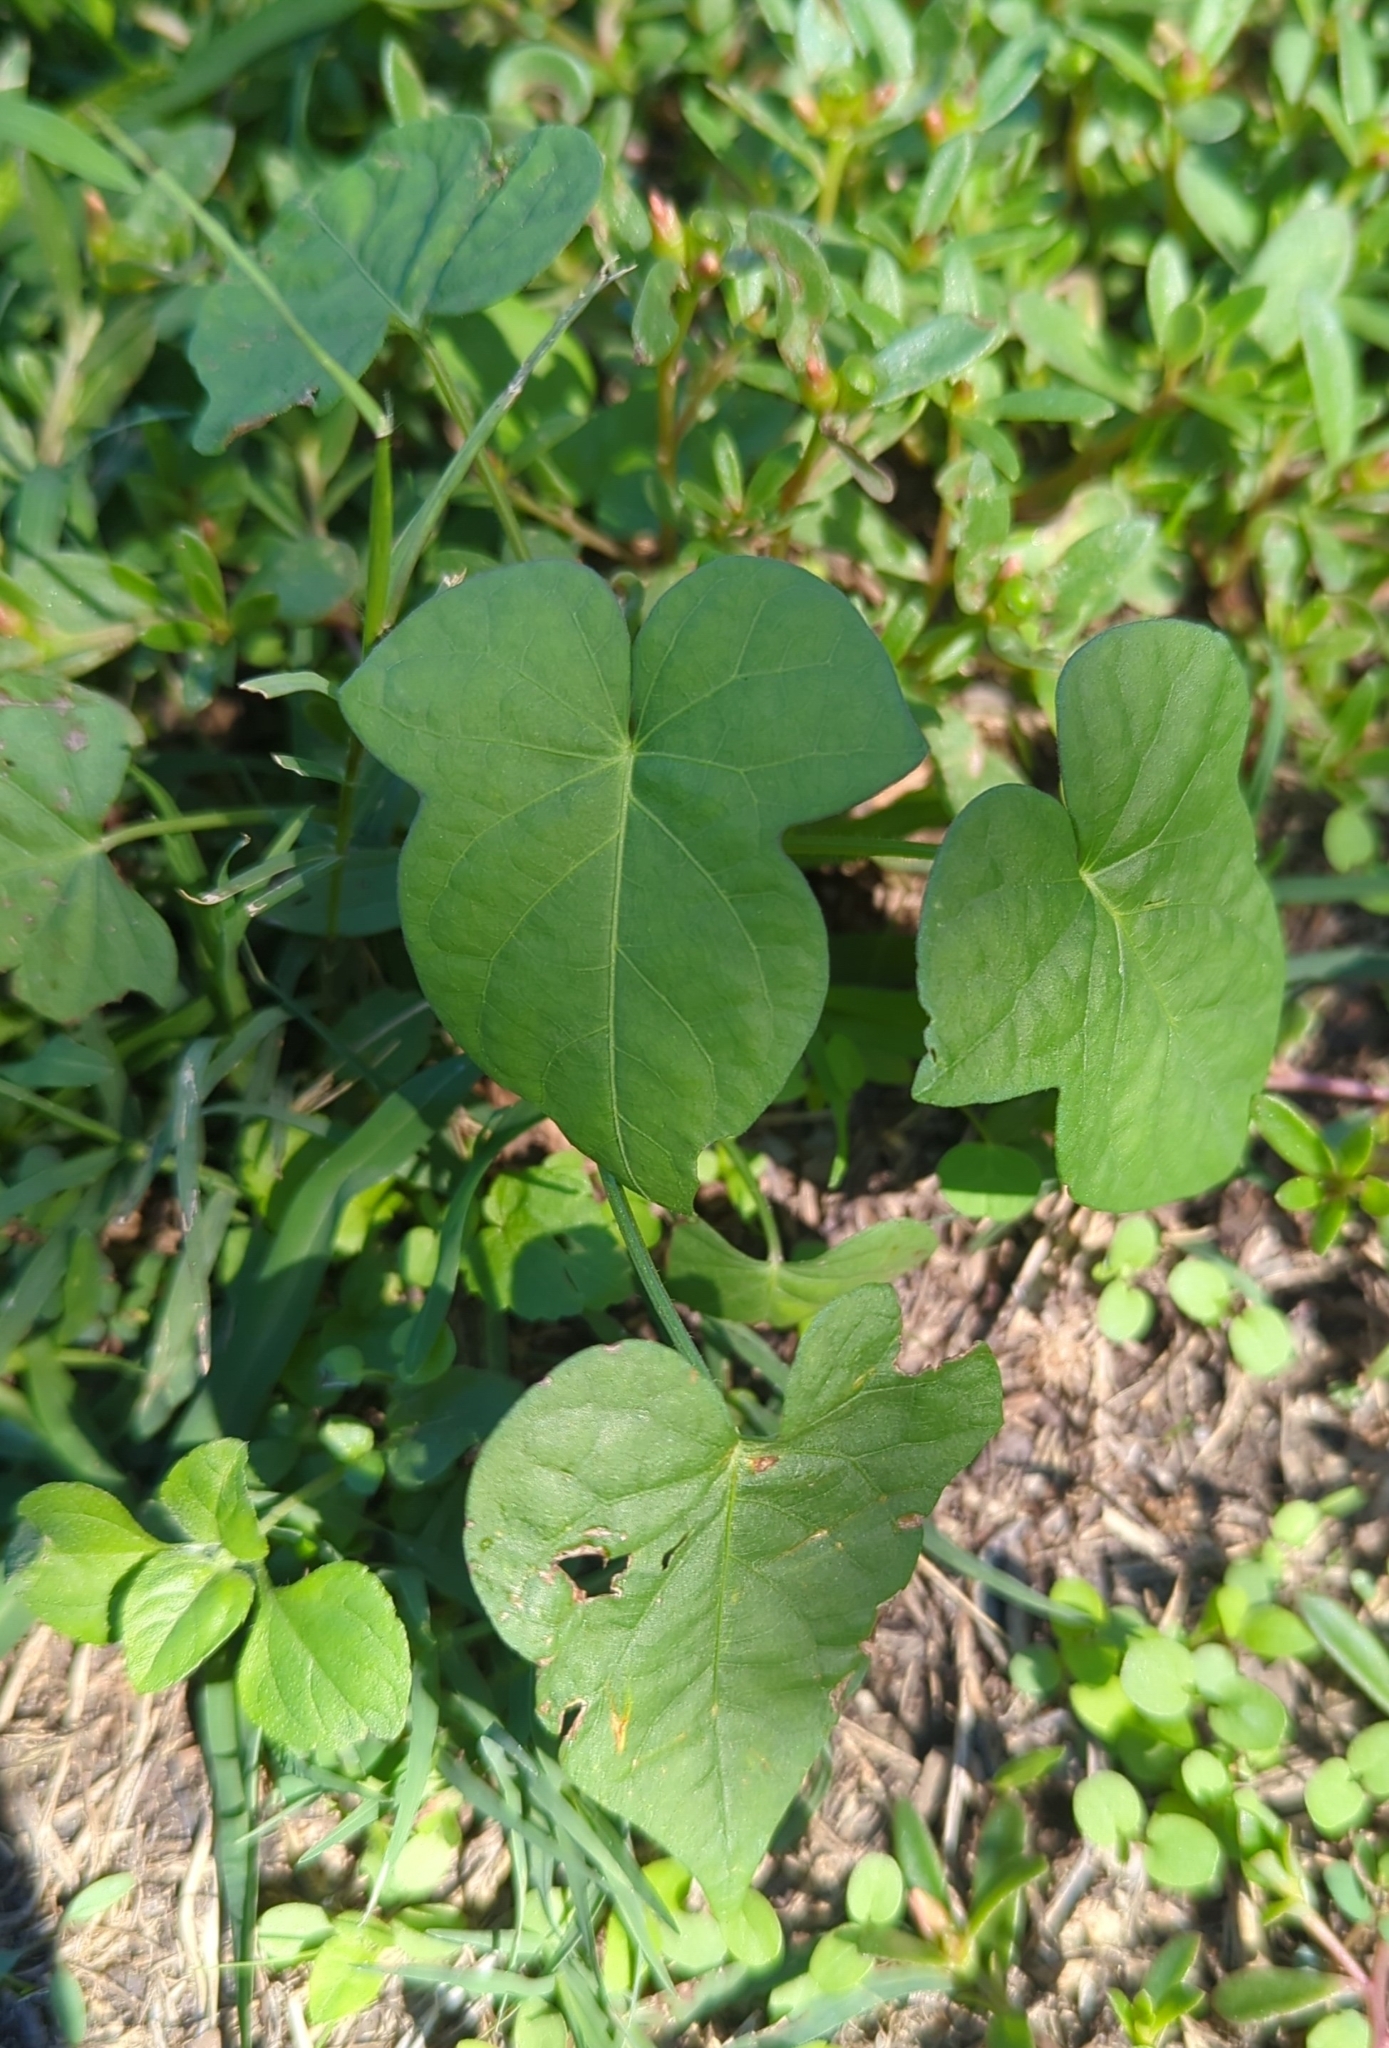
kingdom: Plantae
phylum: Tracheophyta
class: Magnoliopsida
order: Solanales
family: Convolvulaceae
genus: Ipomoea
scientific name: Ipomoea cordatotriloba
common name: Cotton morning glory
